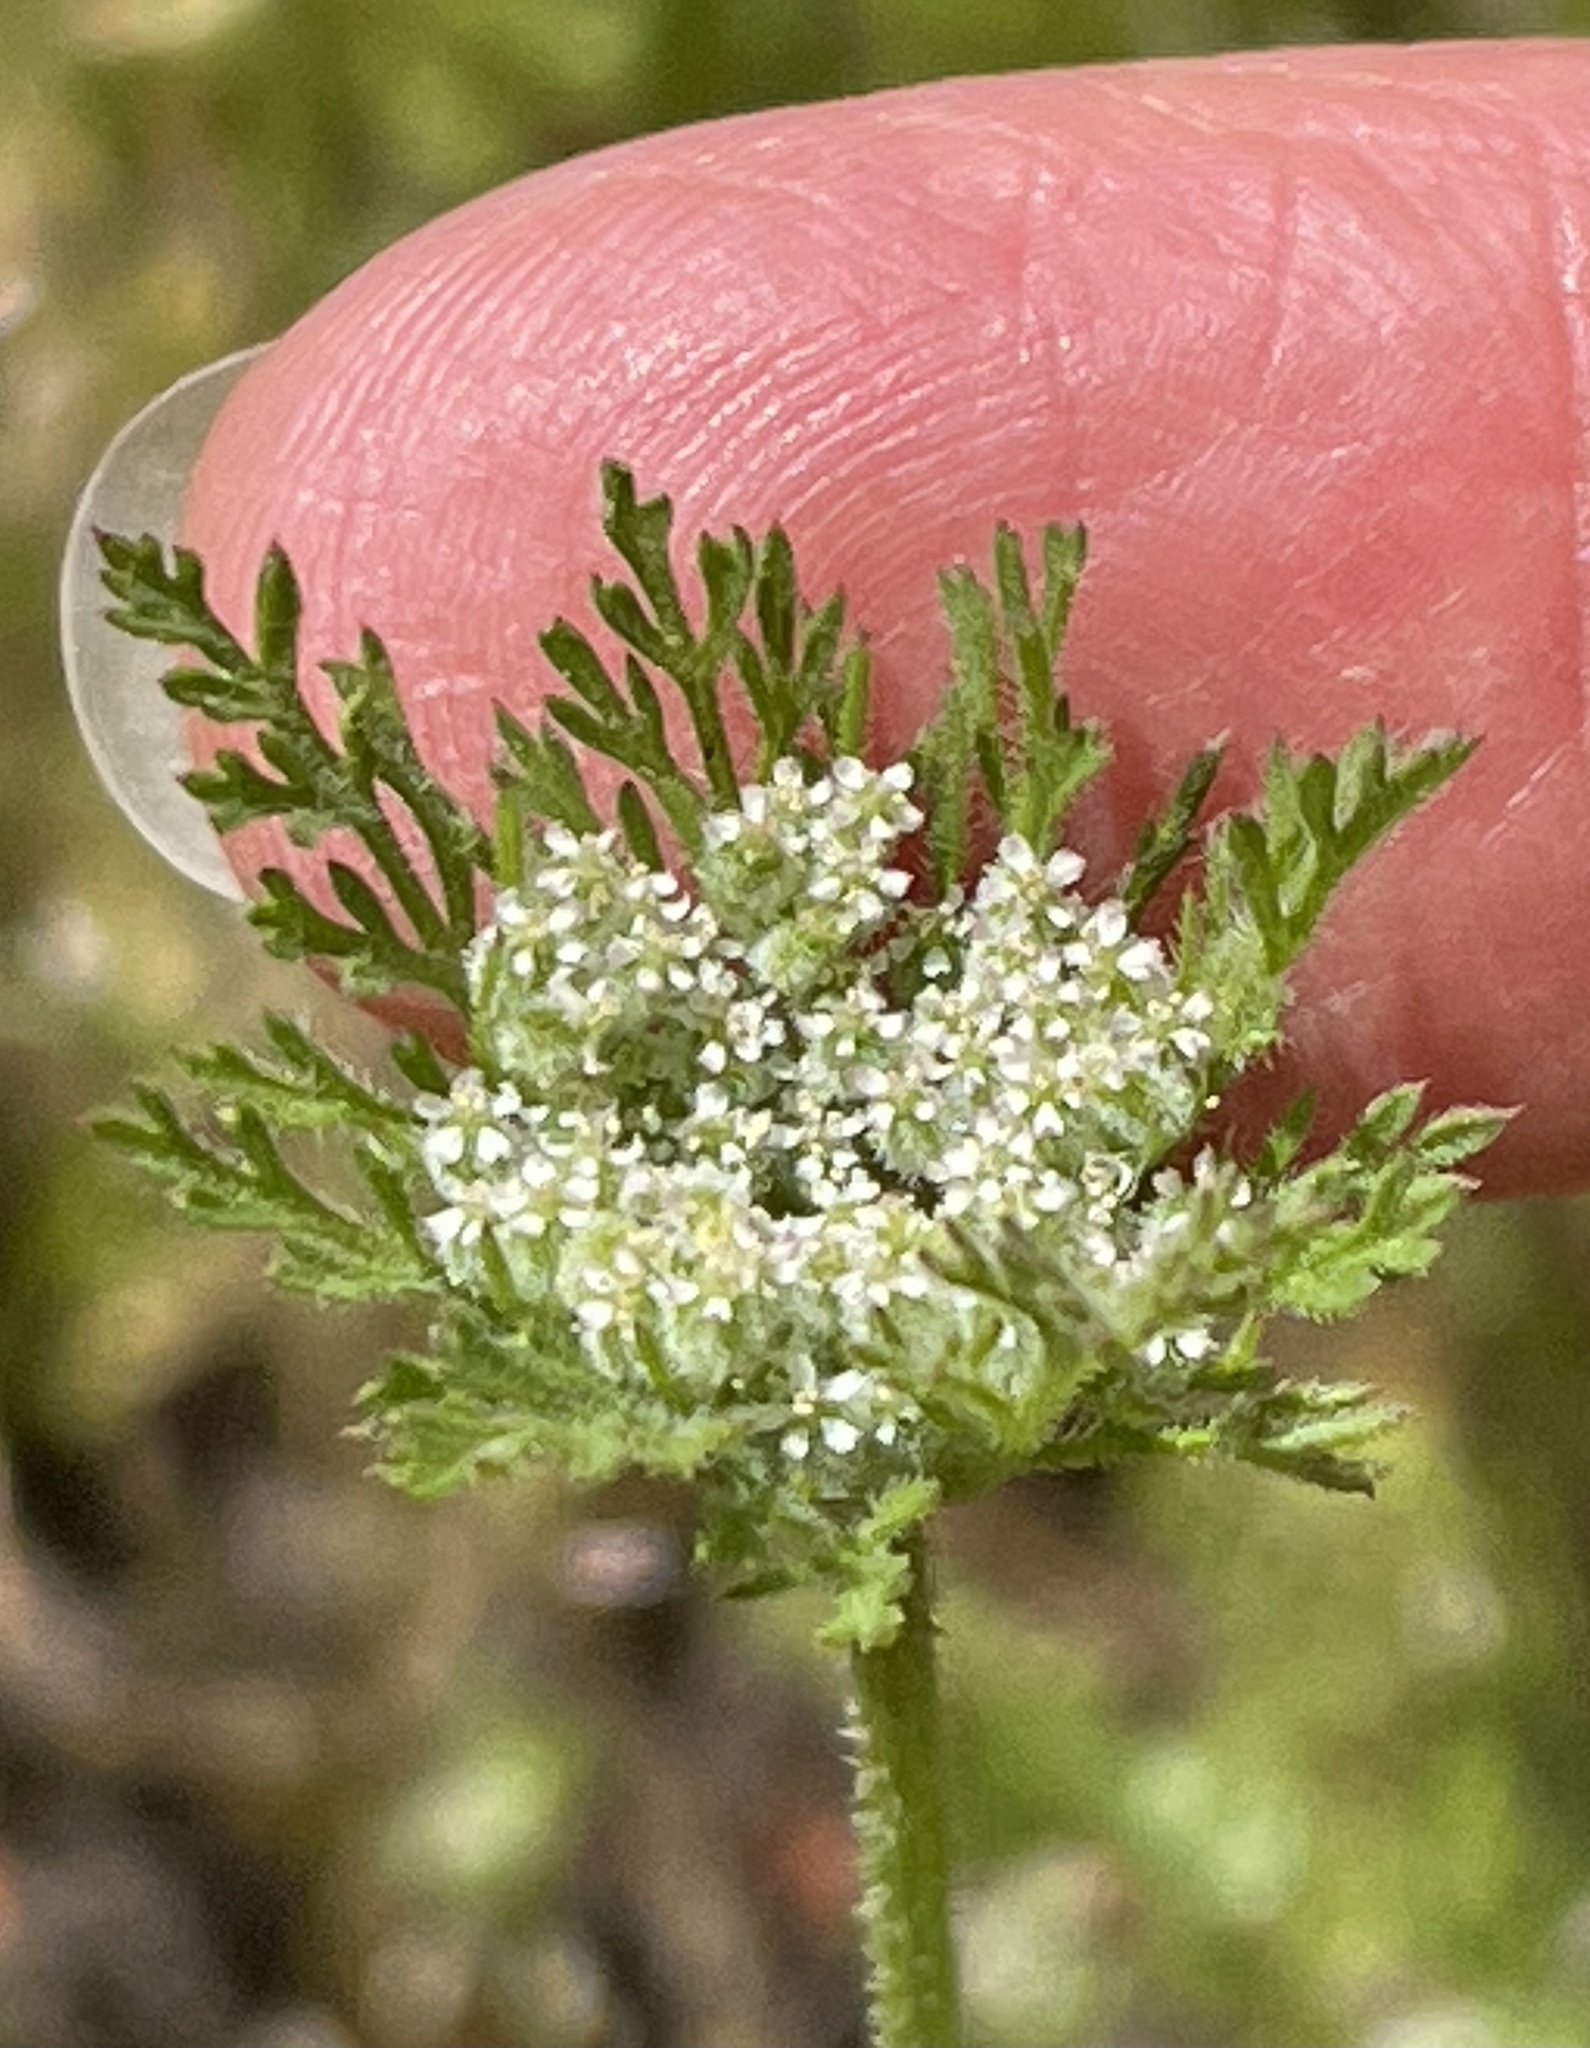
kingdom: Plantae
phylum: Tracheophyta
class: Magnoliopsida
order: Apiales
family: Apiaceae
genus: Daucus
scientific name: Daucus pusillus
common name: Southwest wild carrot
